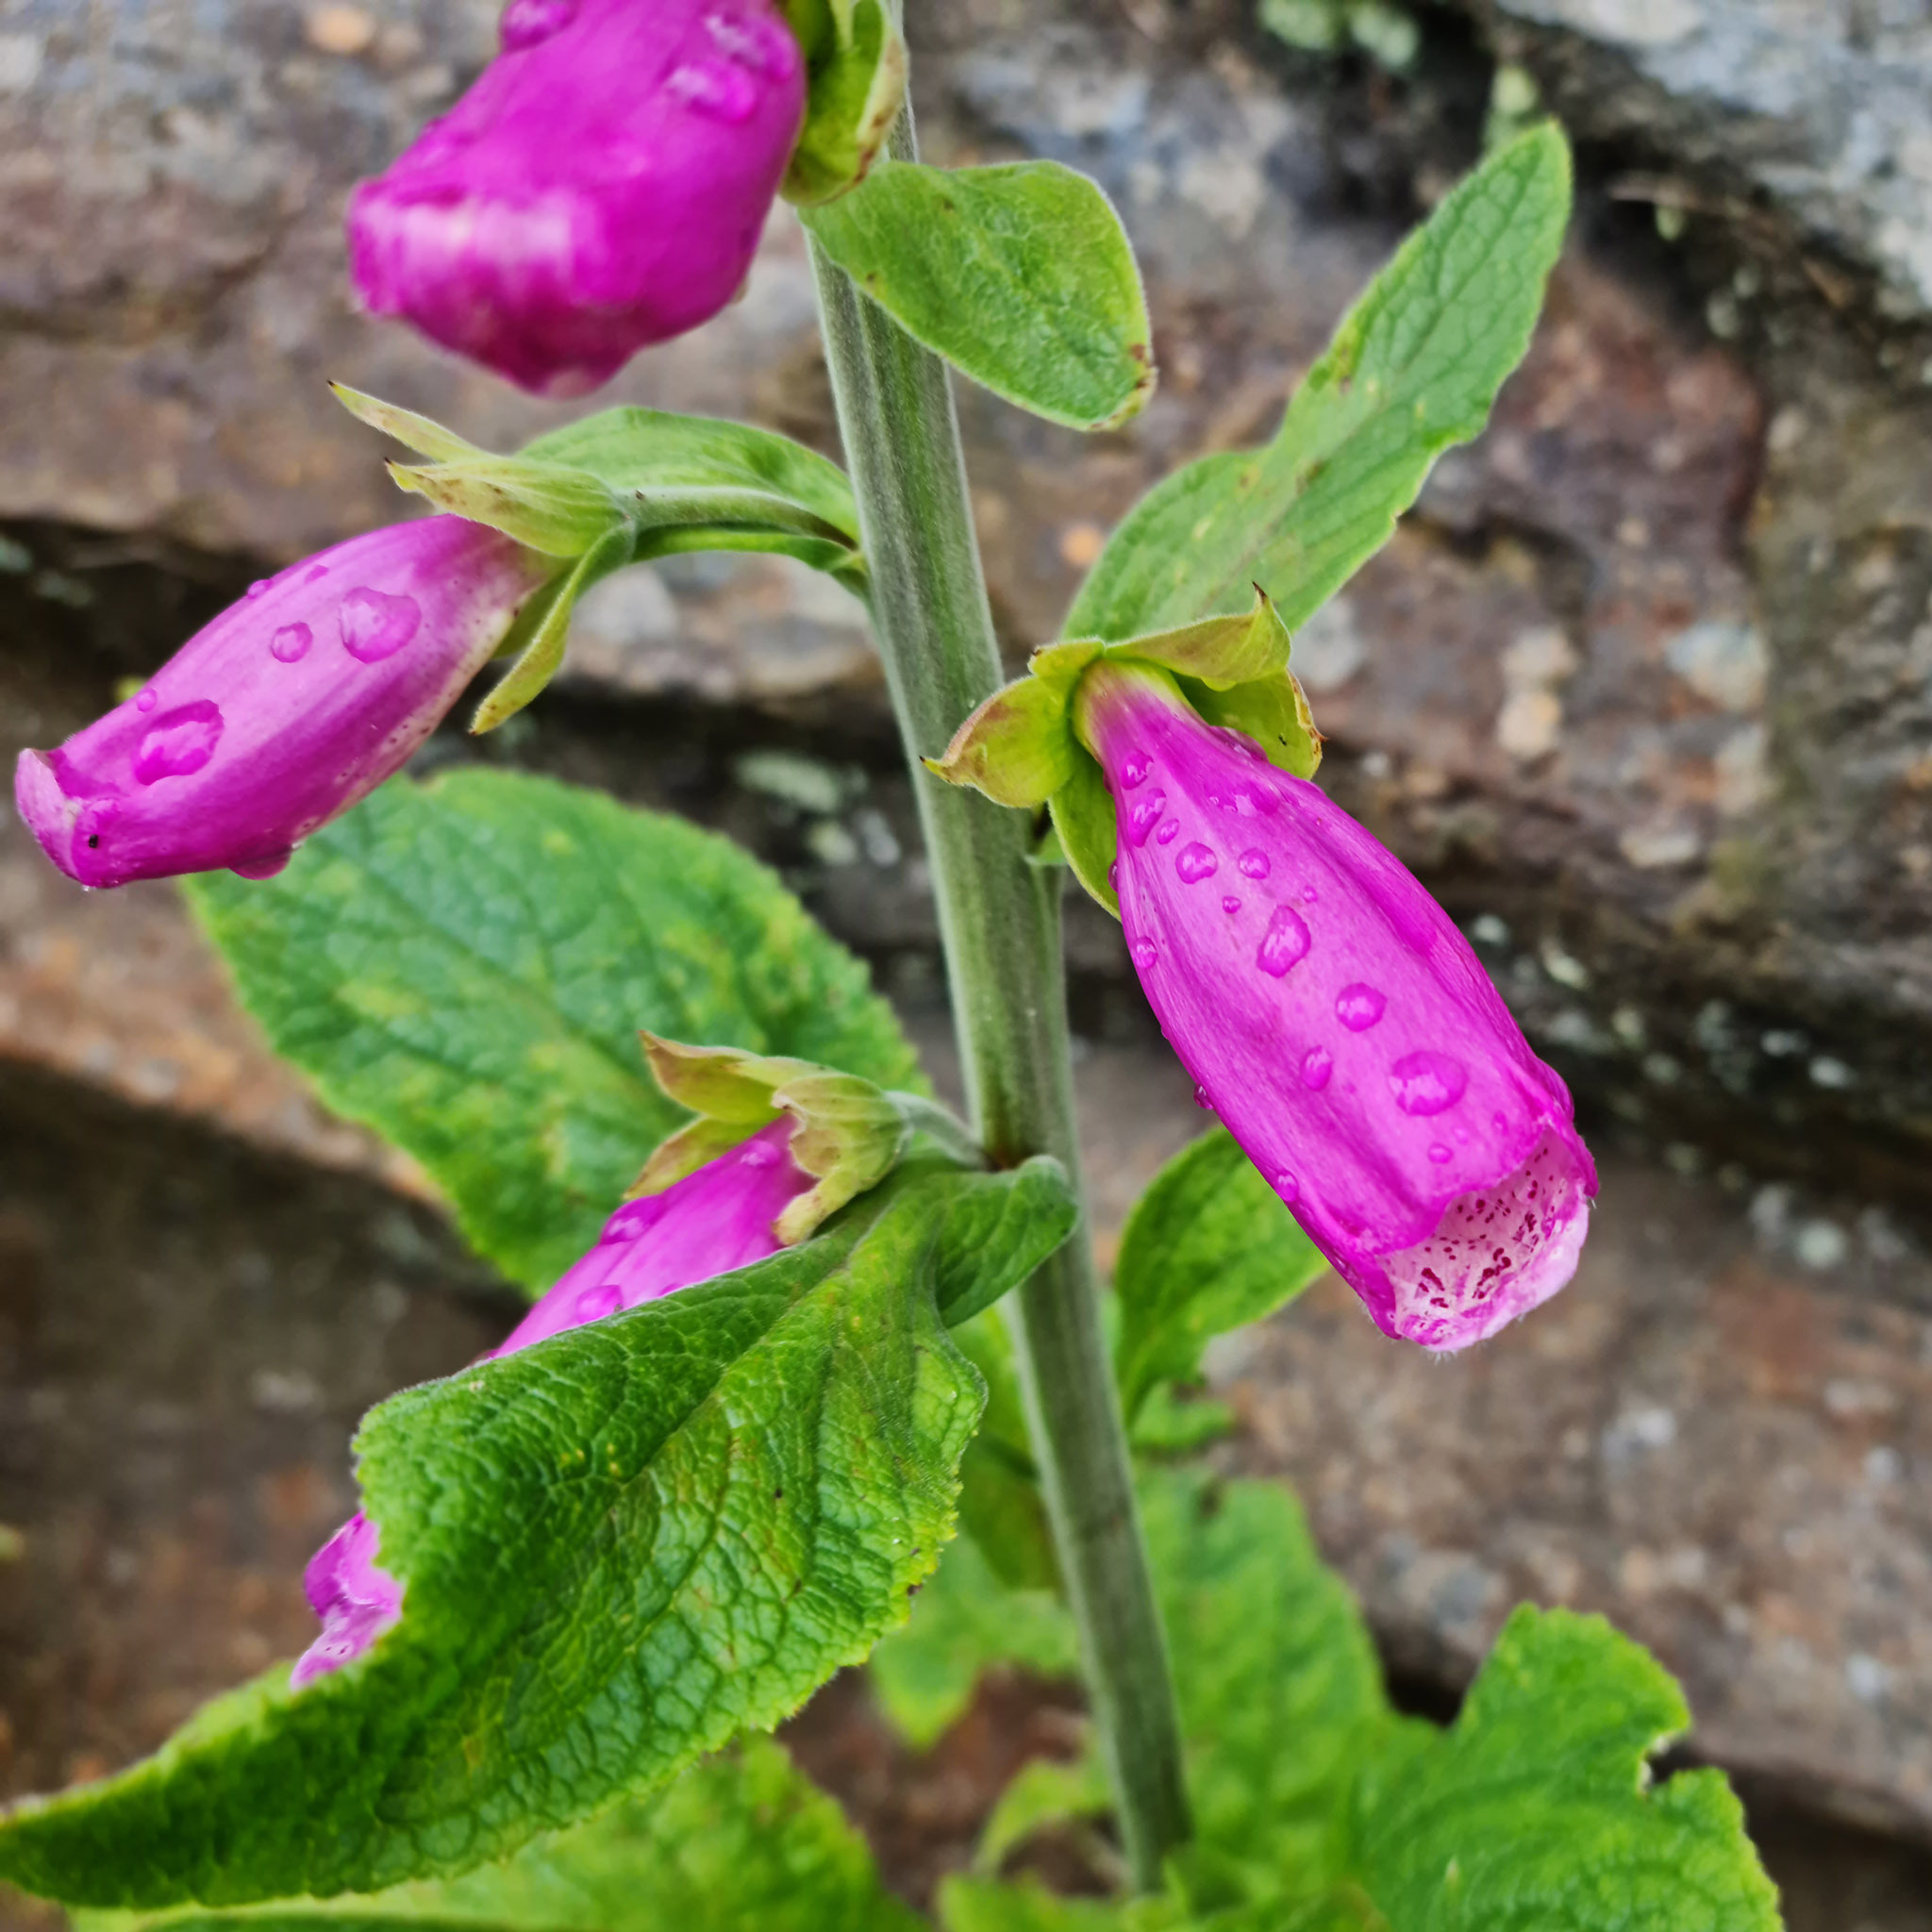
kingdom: Plantae
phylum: Tracheophyta
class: Magnoliopsida
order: Lamiales
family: Plantaginaceae
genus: Digitalis
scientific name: Digitalis purpurea
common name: Foxglove
